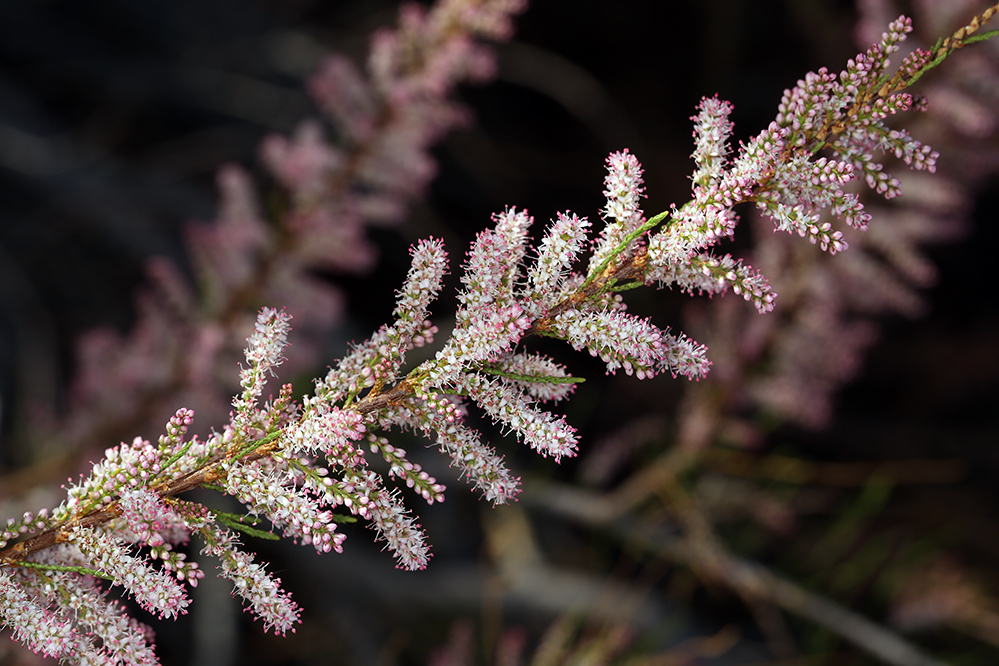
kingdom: Plantae
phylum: Tracheophyta
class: Magnoliopsida
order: Caryophyllales
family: Tamaricaceae
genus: Tamarix
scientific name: Tamarix parviflora
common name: Smallflower tamarisk
